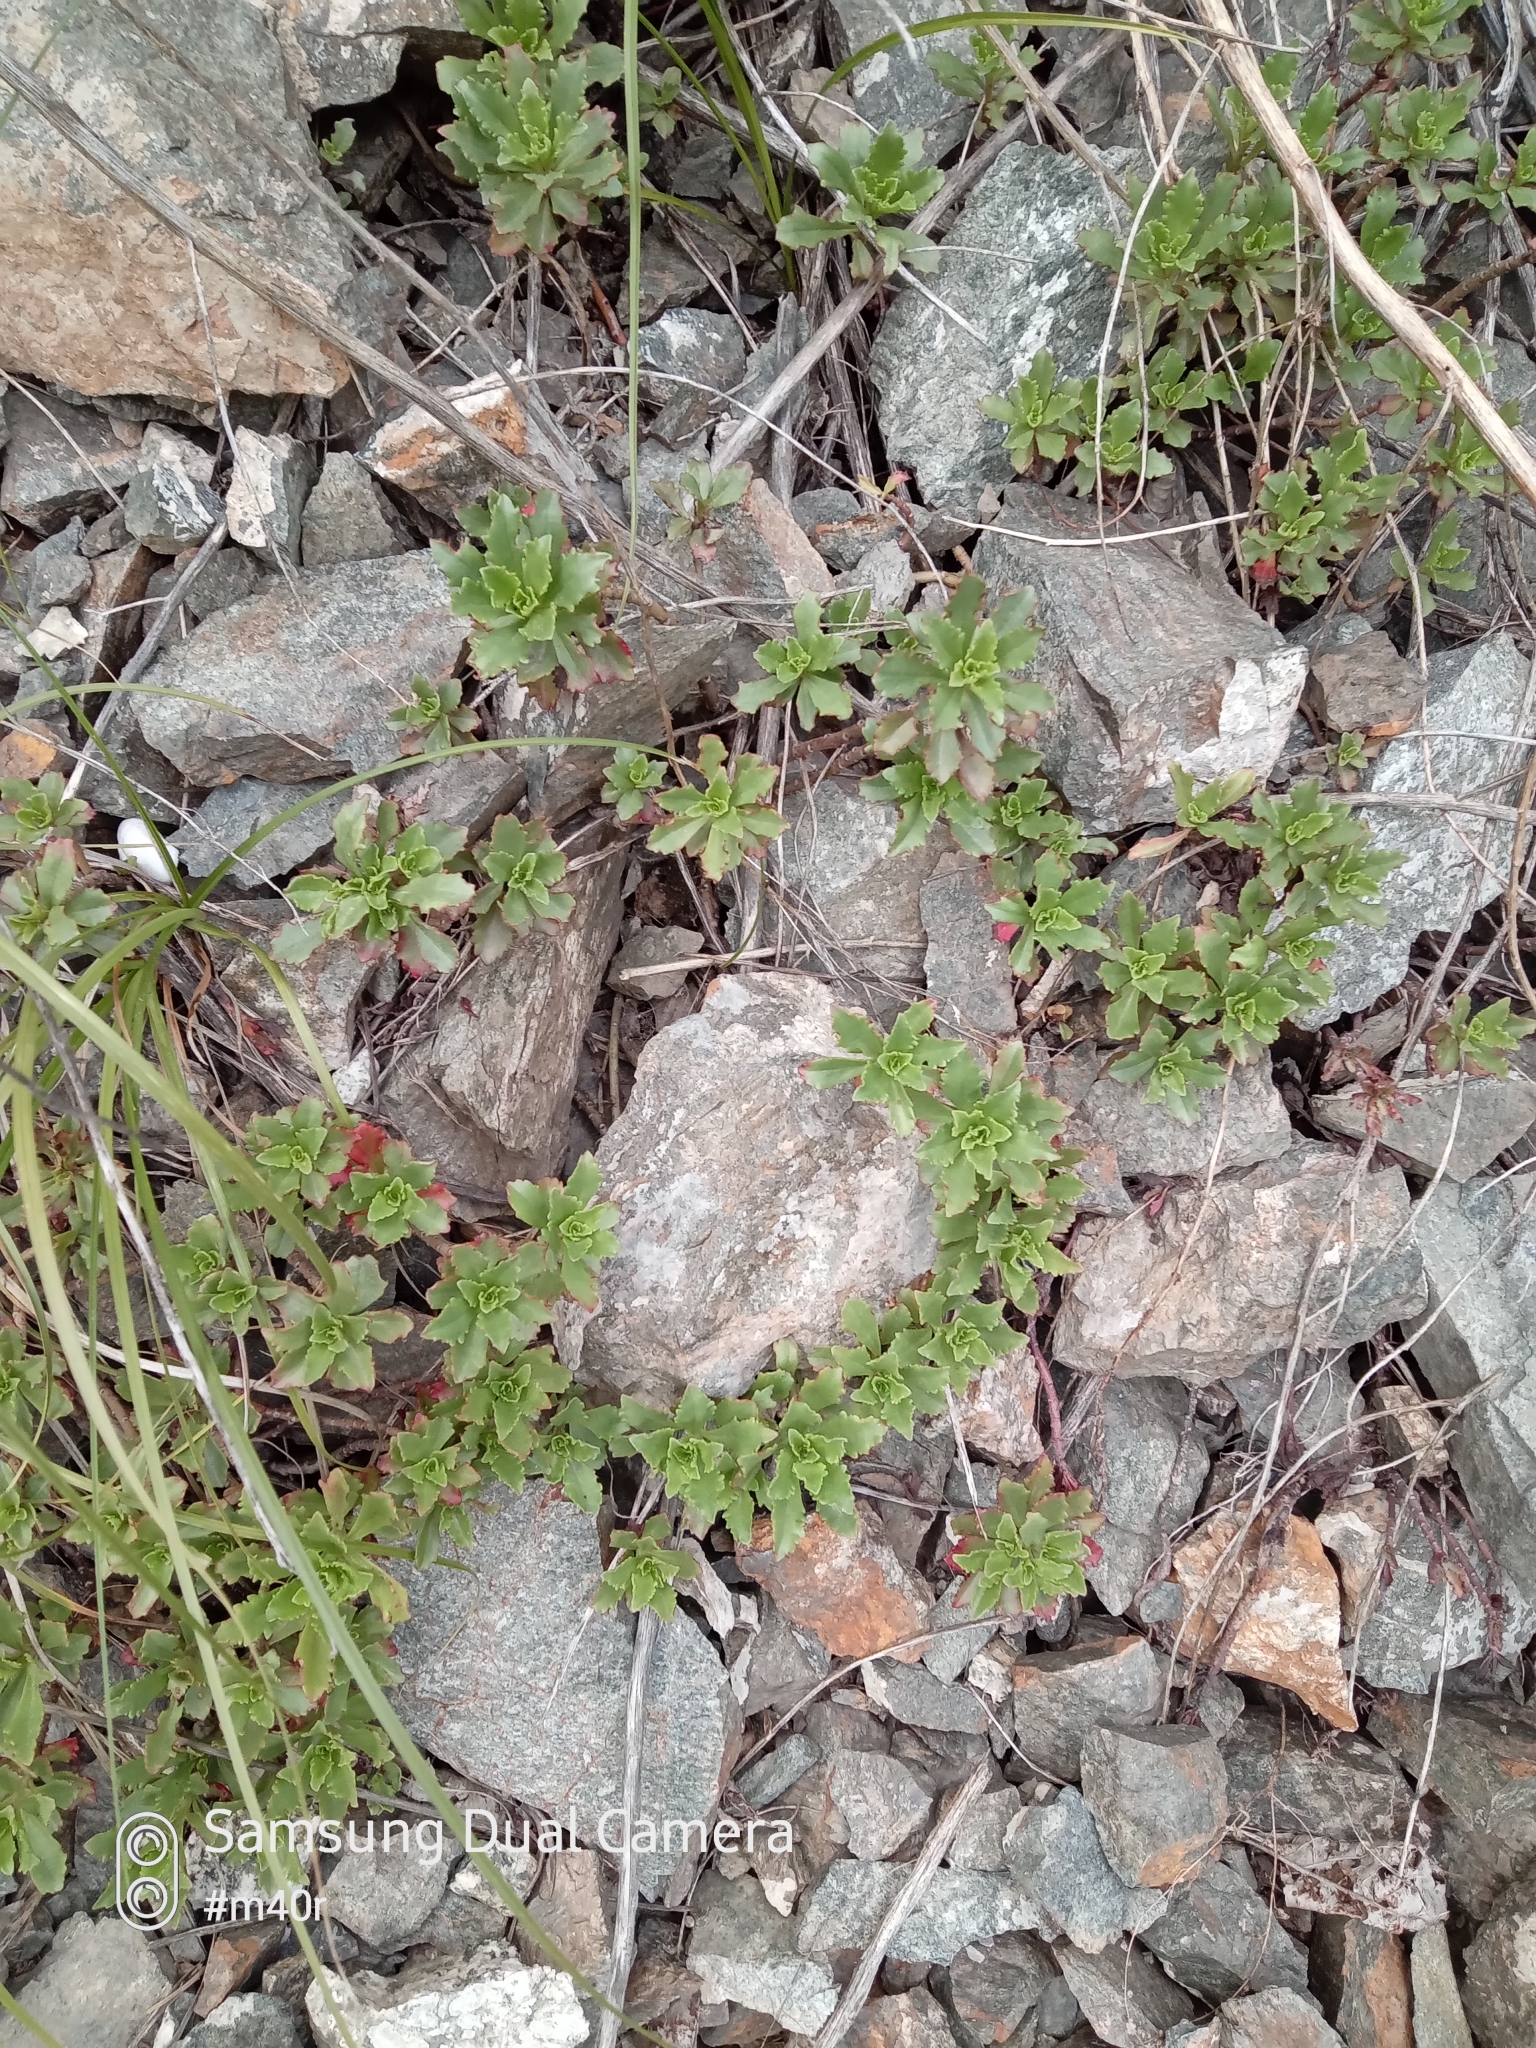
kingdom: Plantae
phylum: Tracheophyta
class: Magnoliopsida
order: Saxifragales
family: Crassulaceae
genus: Phedimus
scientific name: Phedimus hybridus
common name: Hybrid stonecrop
